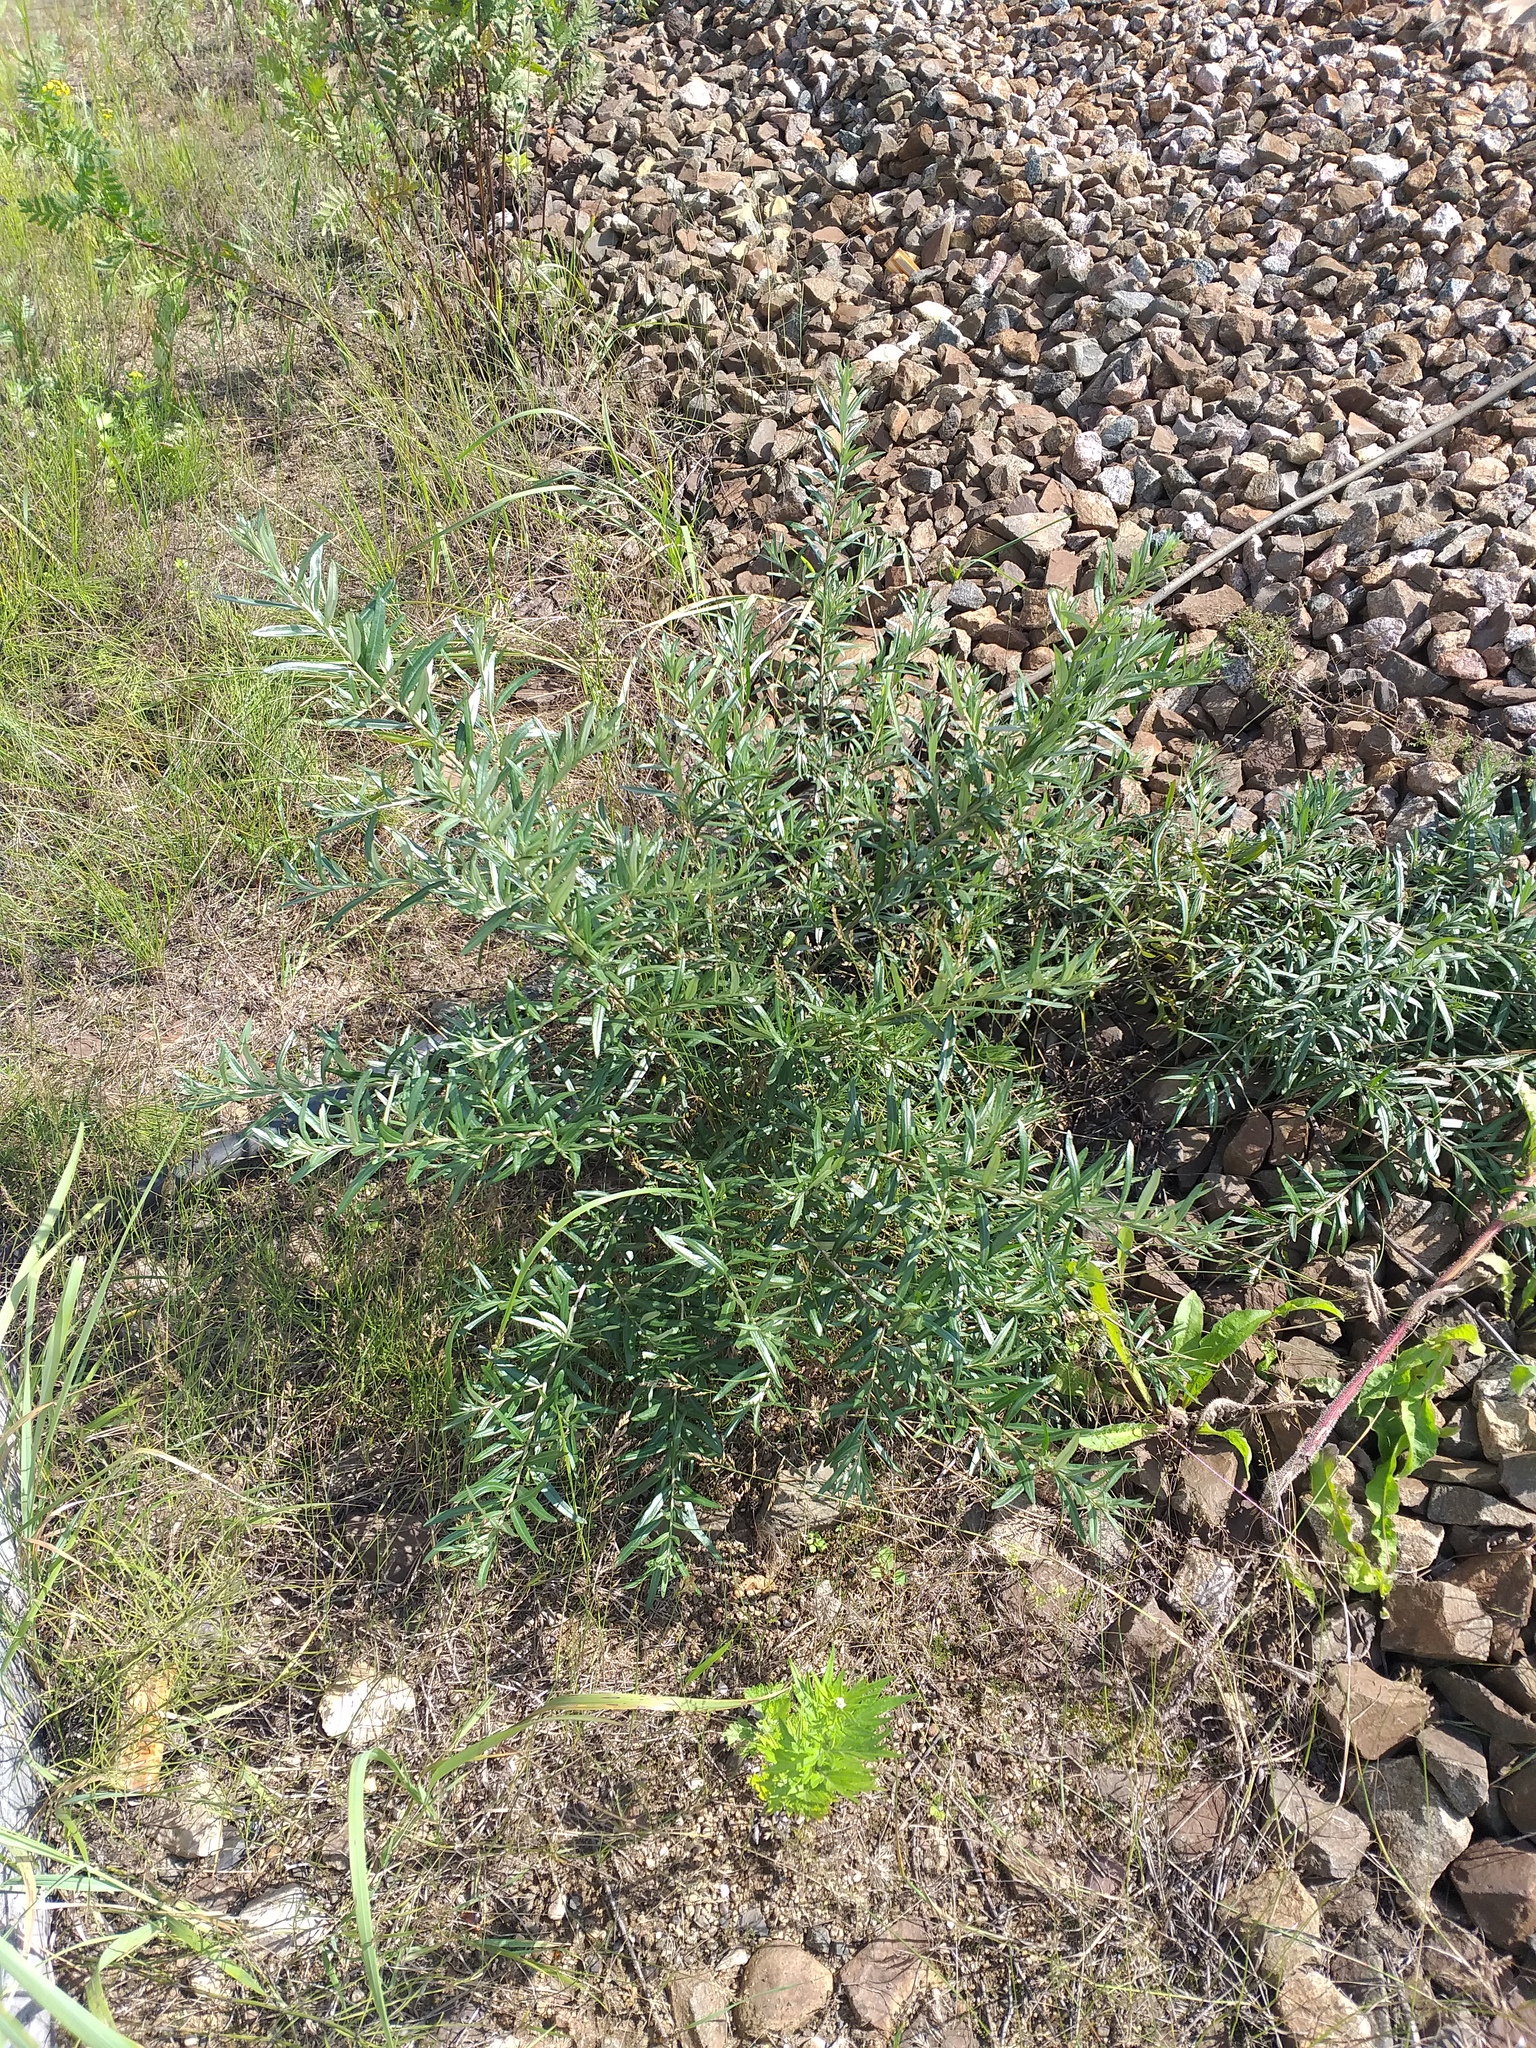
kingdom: Plantae
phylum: Tracheophyta
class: Magnoliopsida
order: Rosales
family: Elaeagnaceae
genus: Hippophae
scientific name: Hippophae rhamnoides
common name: Sea-buckthorn
